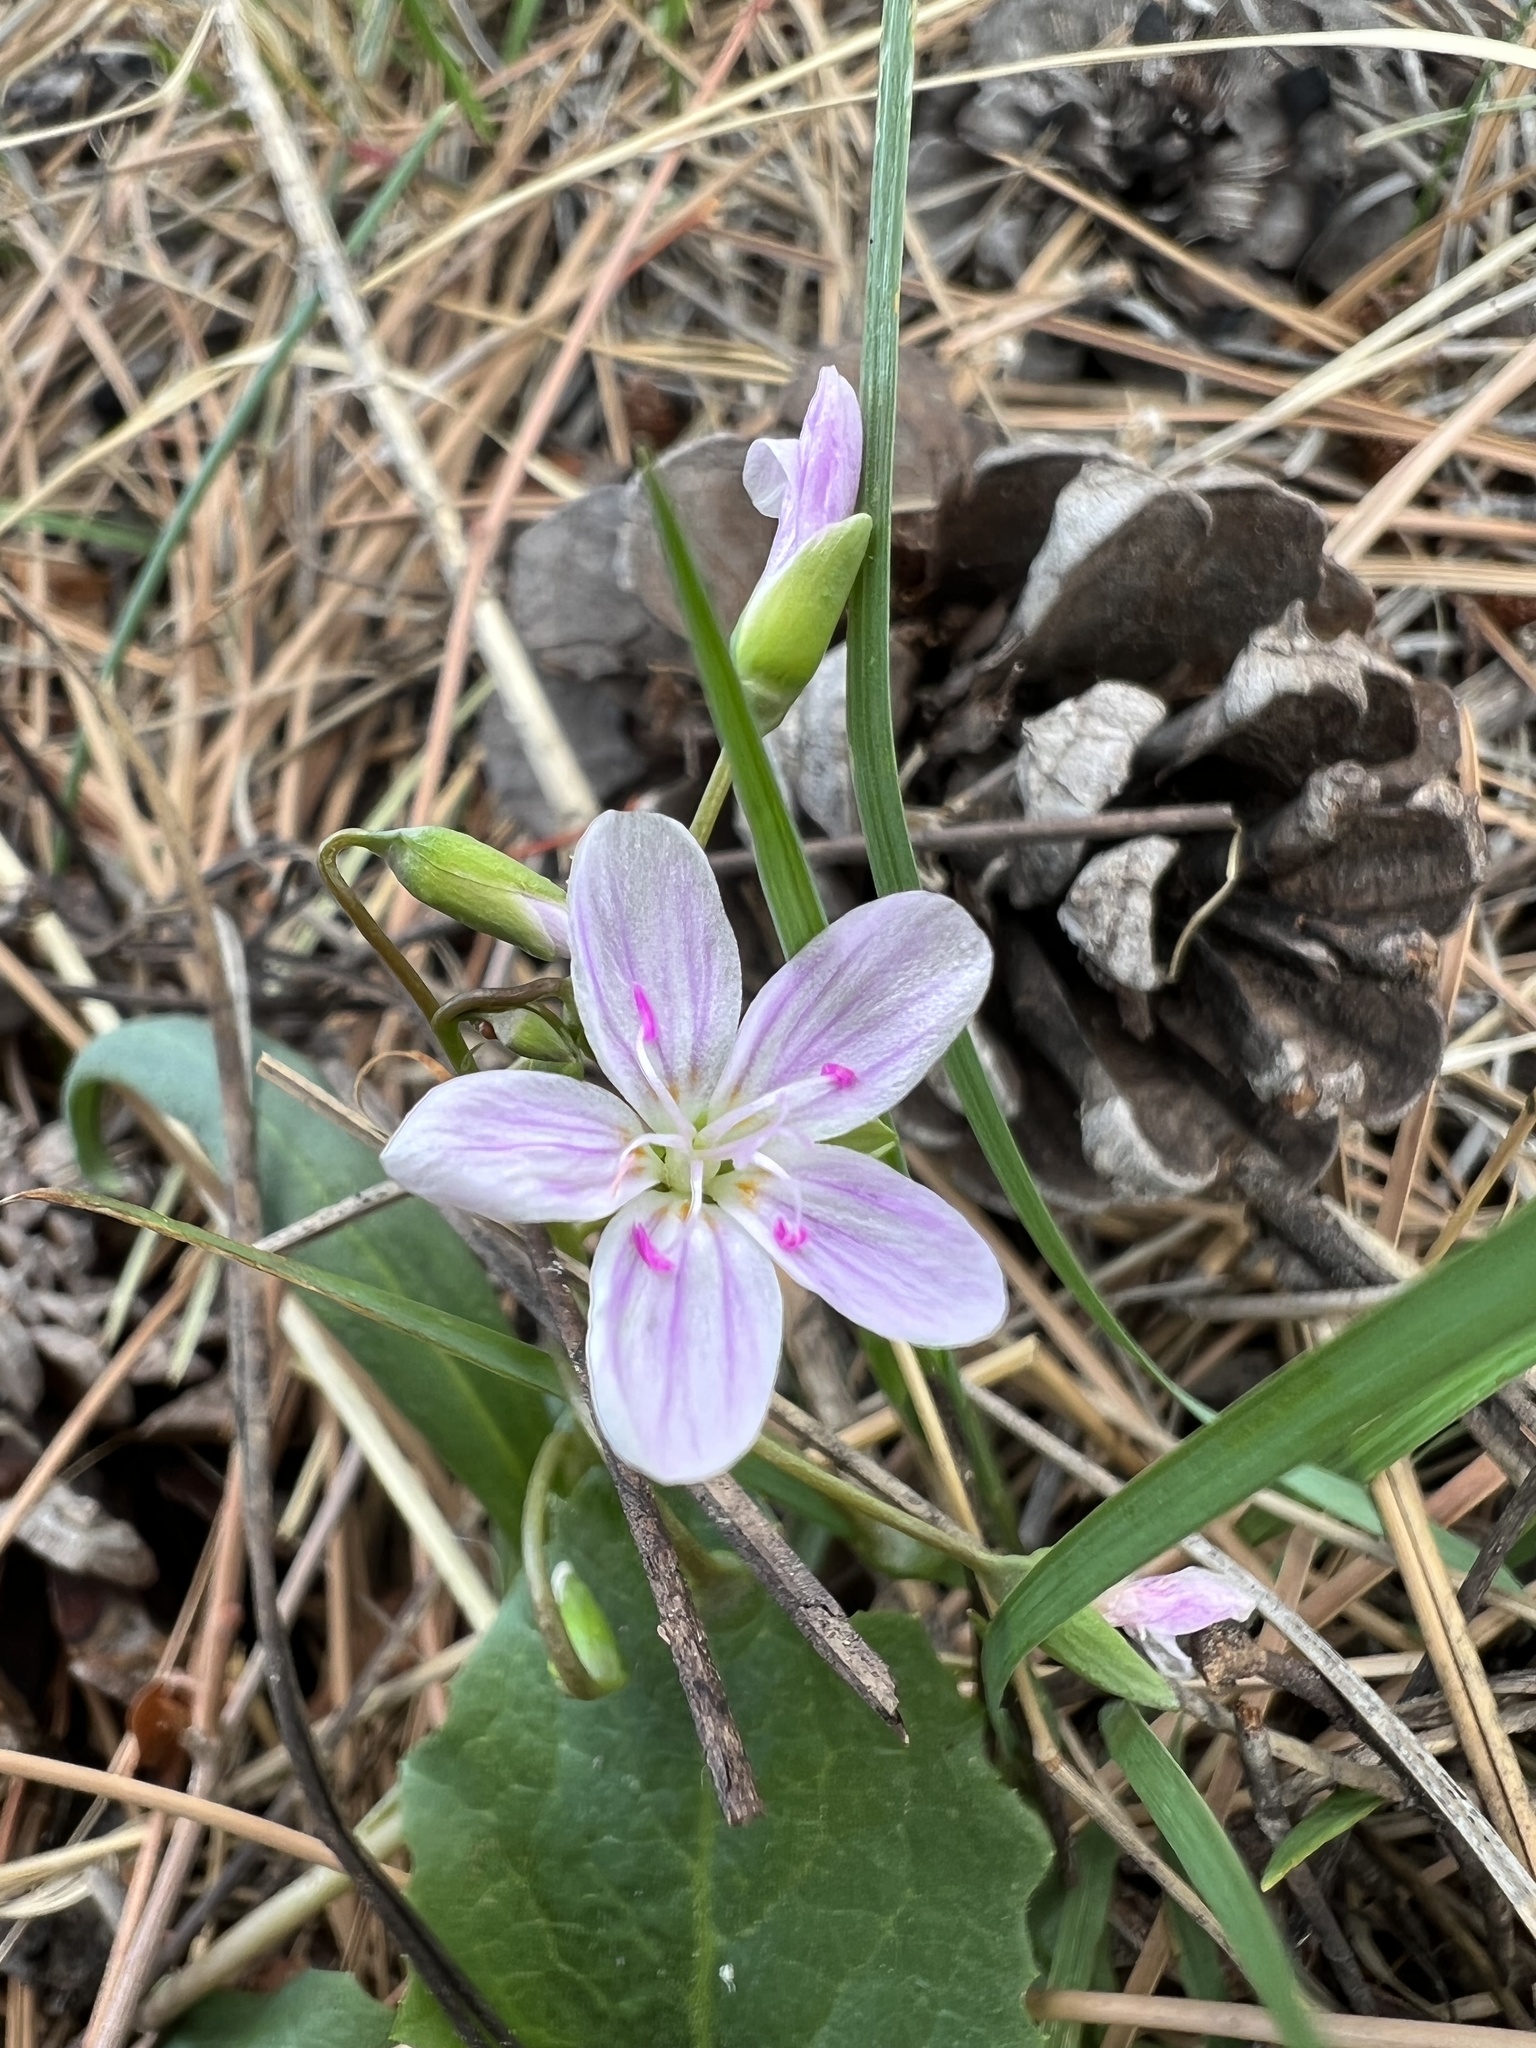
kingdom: Plantae
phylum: Tracheophyta
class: Magnoliopsida
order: Caryophyllales
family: Montiaceae
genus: Claytonia
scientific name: Claytonia rosea
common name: Rocky mountain spring-beauty
